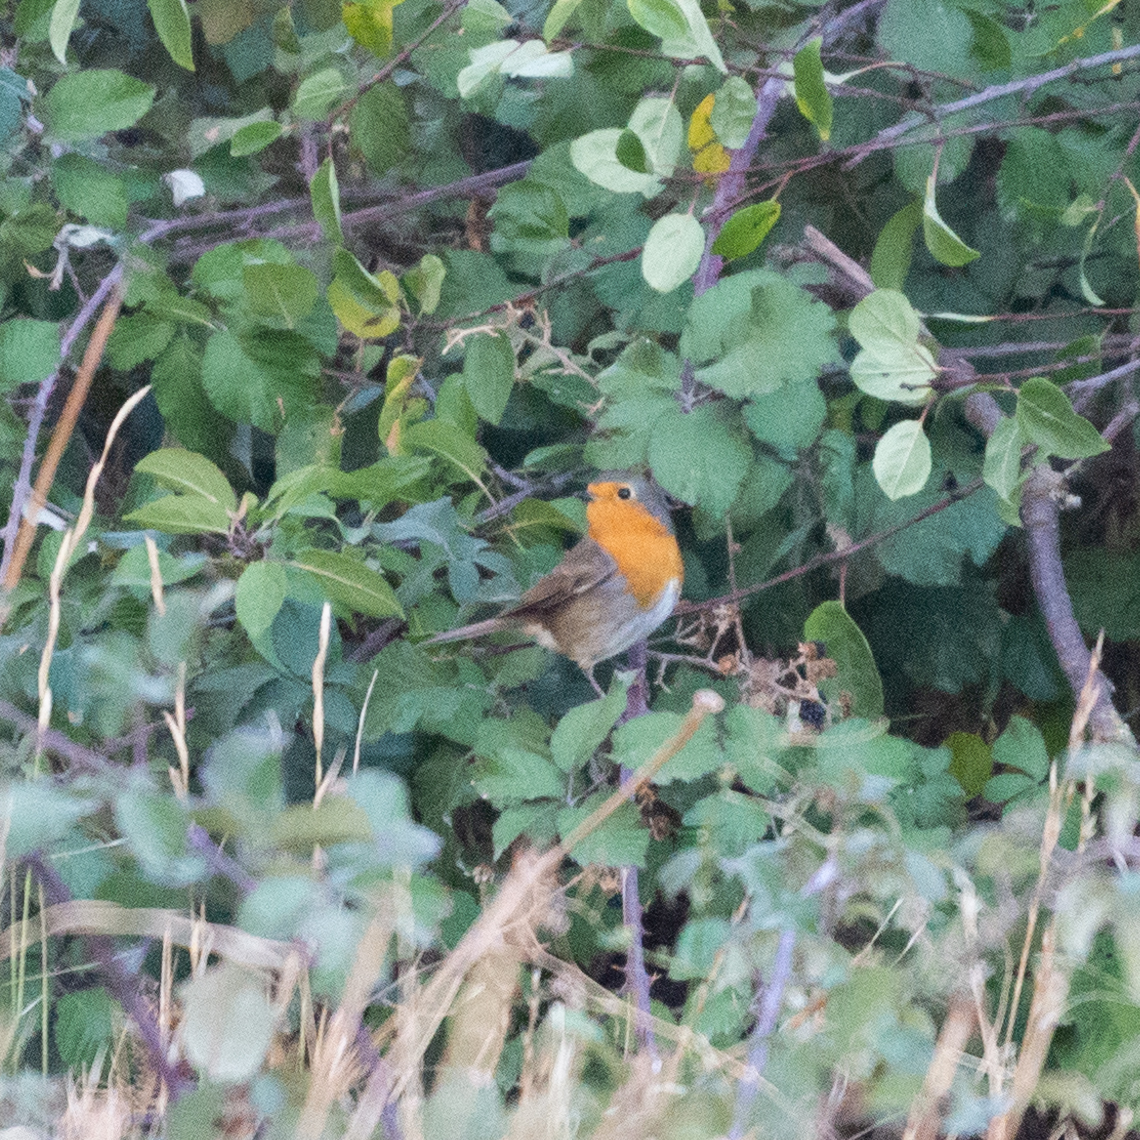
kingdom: Animalia
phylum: Chordata
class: Aves
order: Passeriformes
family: Muscicapidae
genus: Erithacus
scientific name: Erithacus rubecula
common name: European robin
